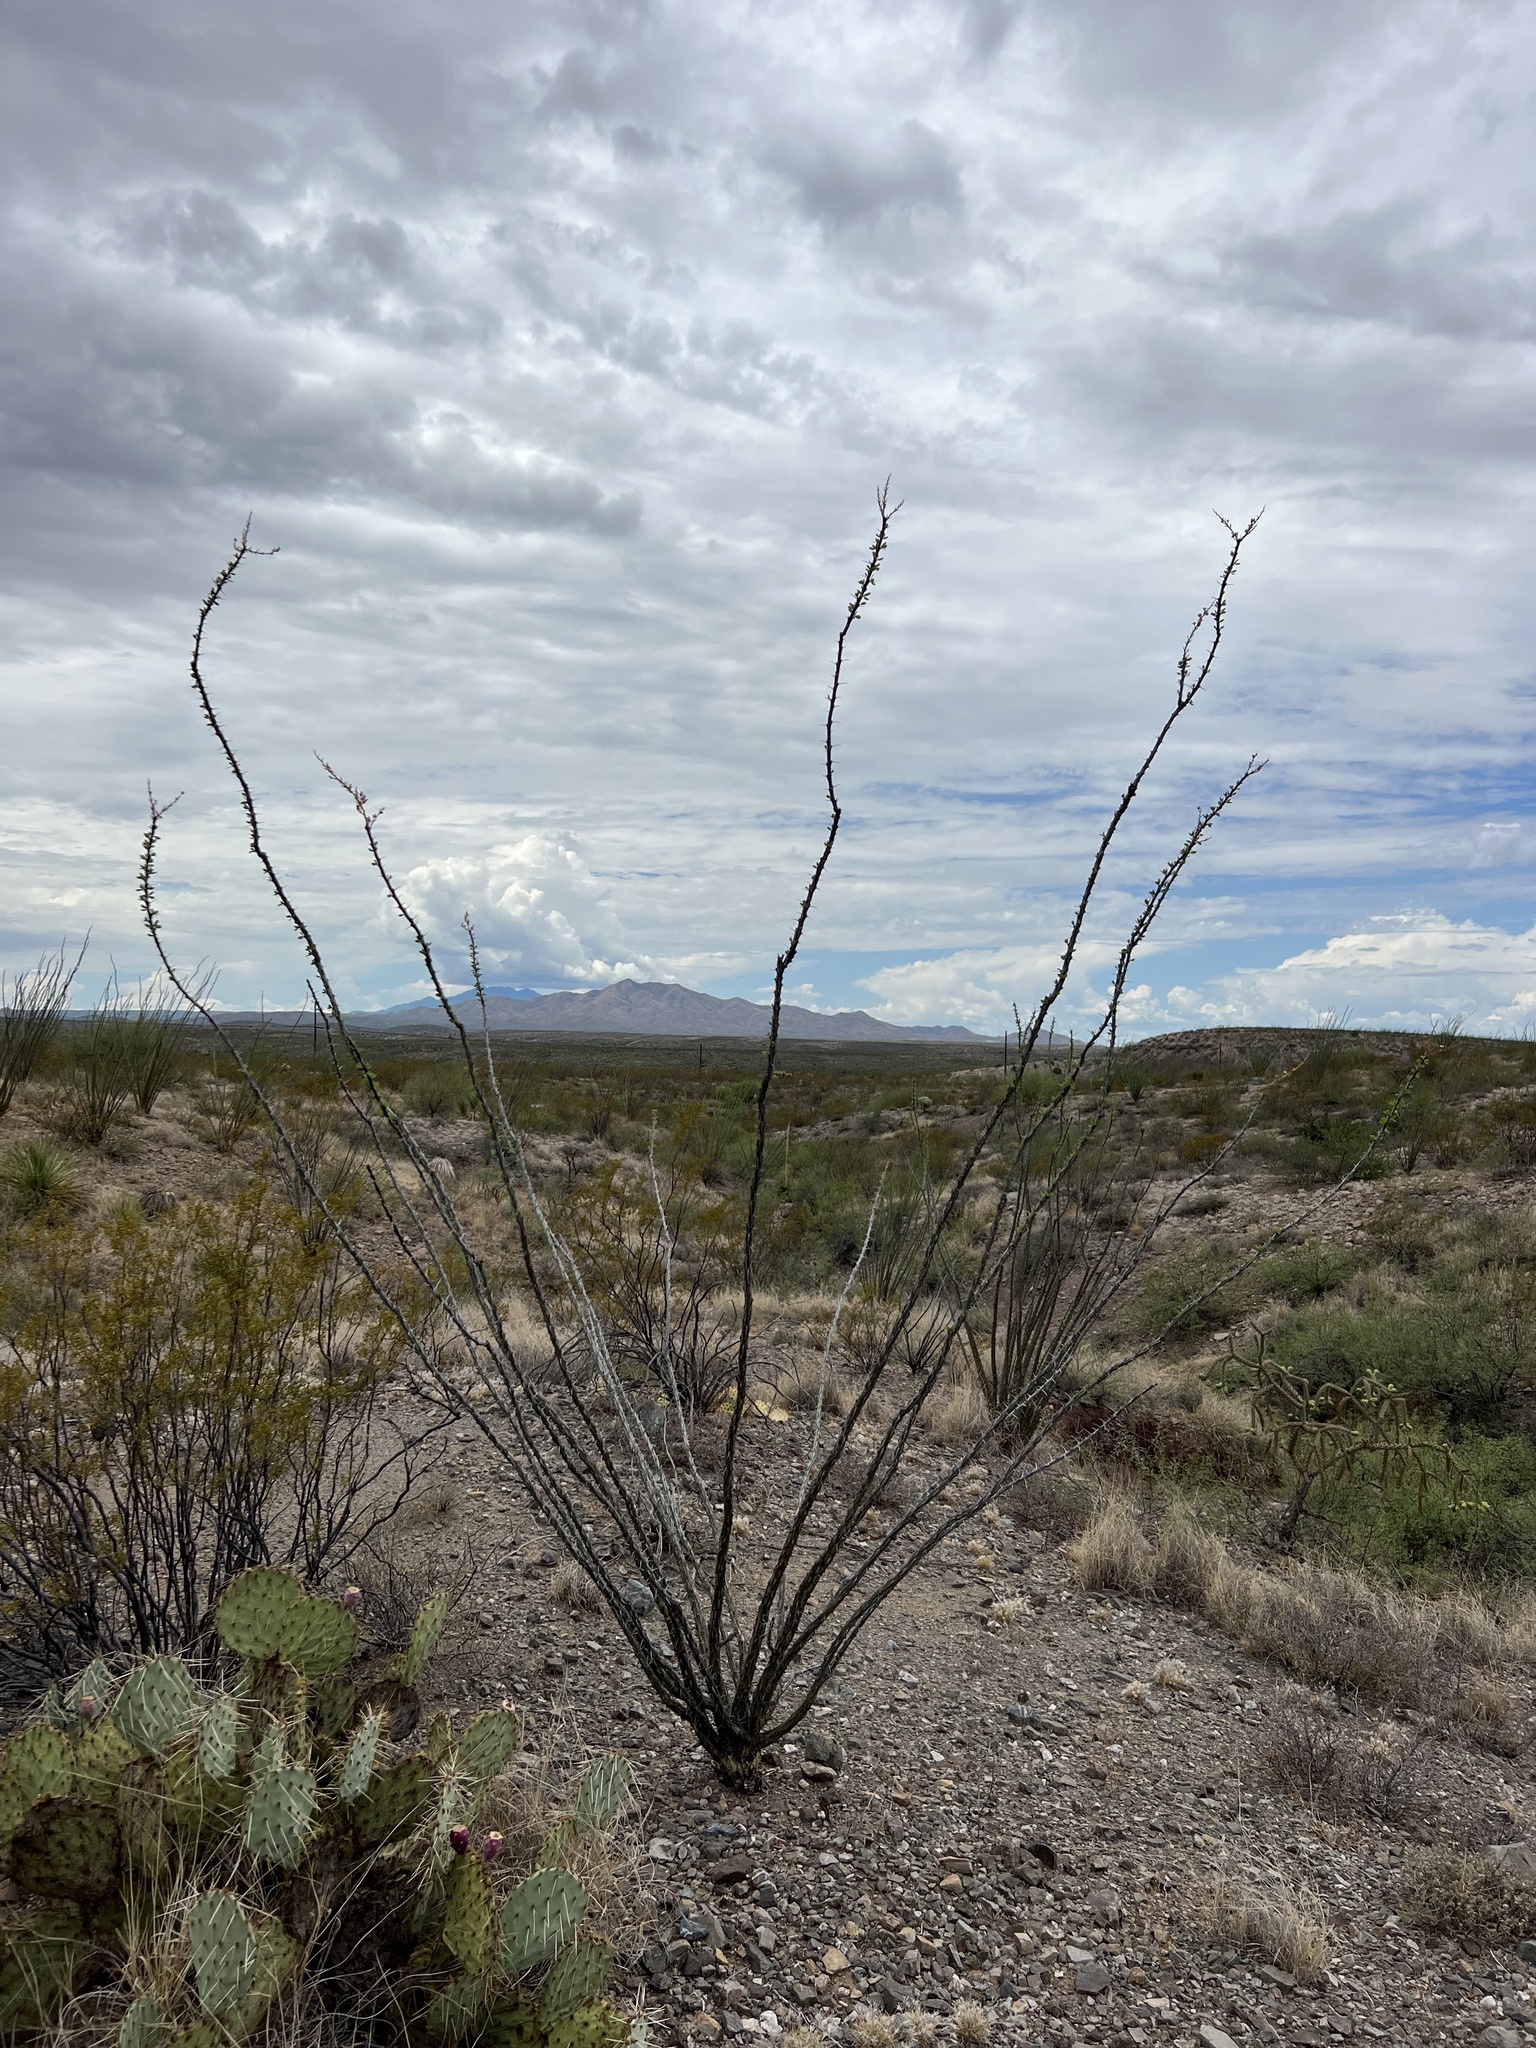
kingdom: Plantae
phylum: Tracheophyta
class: Magnoliopsida
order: Ericales
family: Fouquieriaceae
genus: Fouquieria
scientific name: Fouquieria splendens
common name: Vine-cactus
